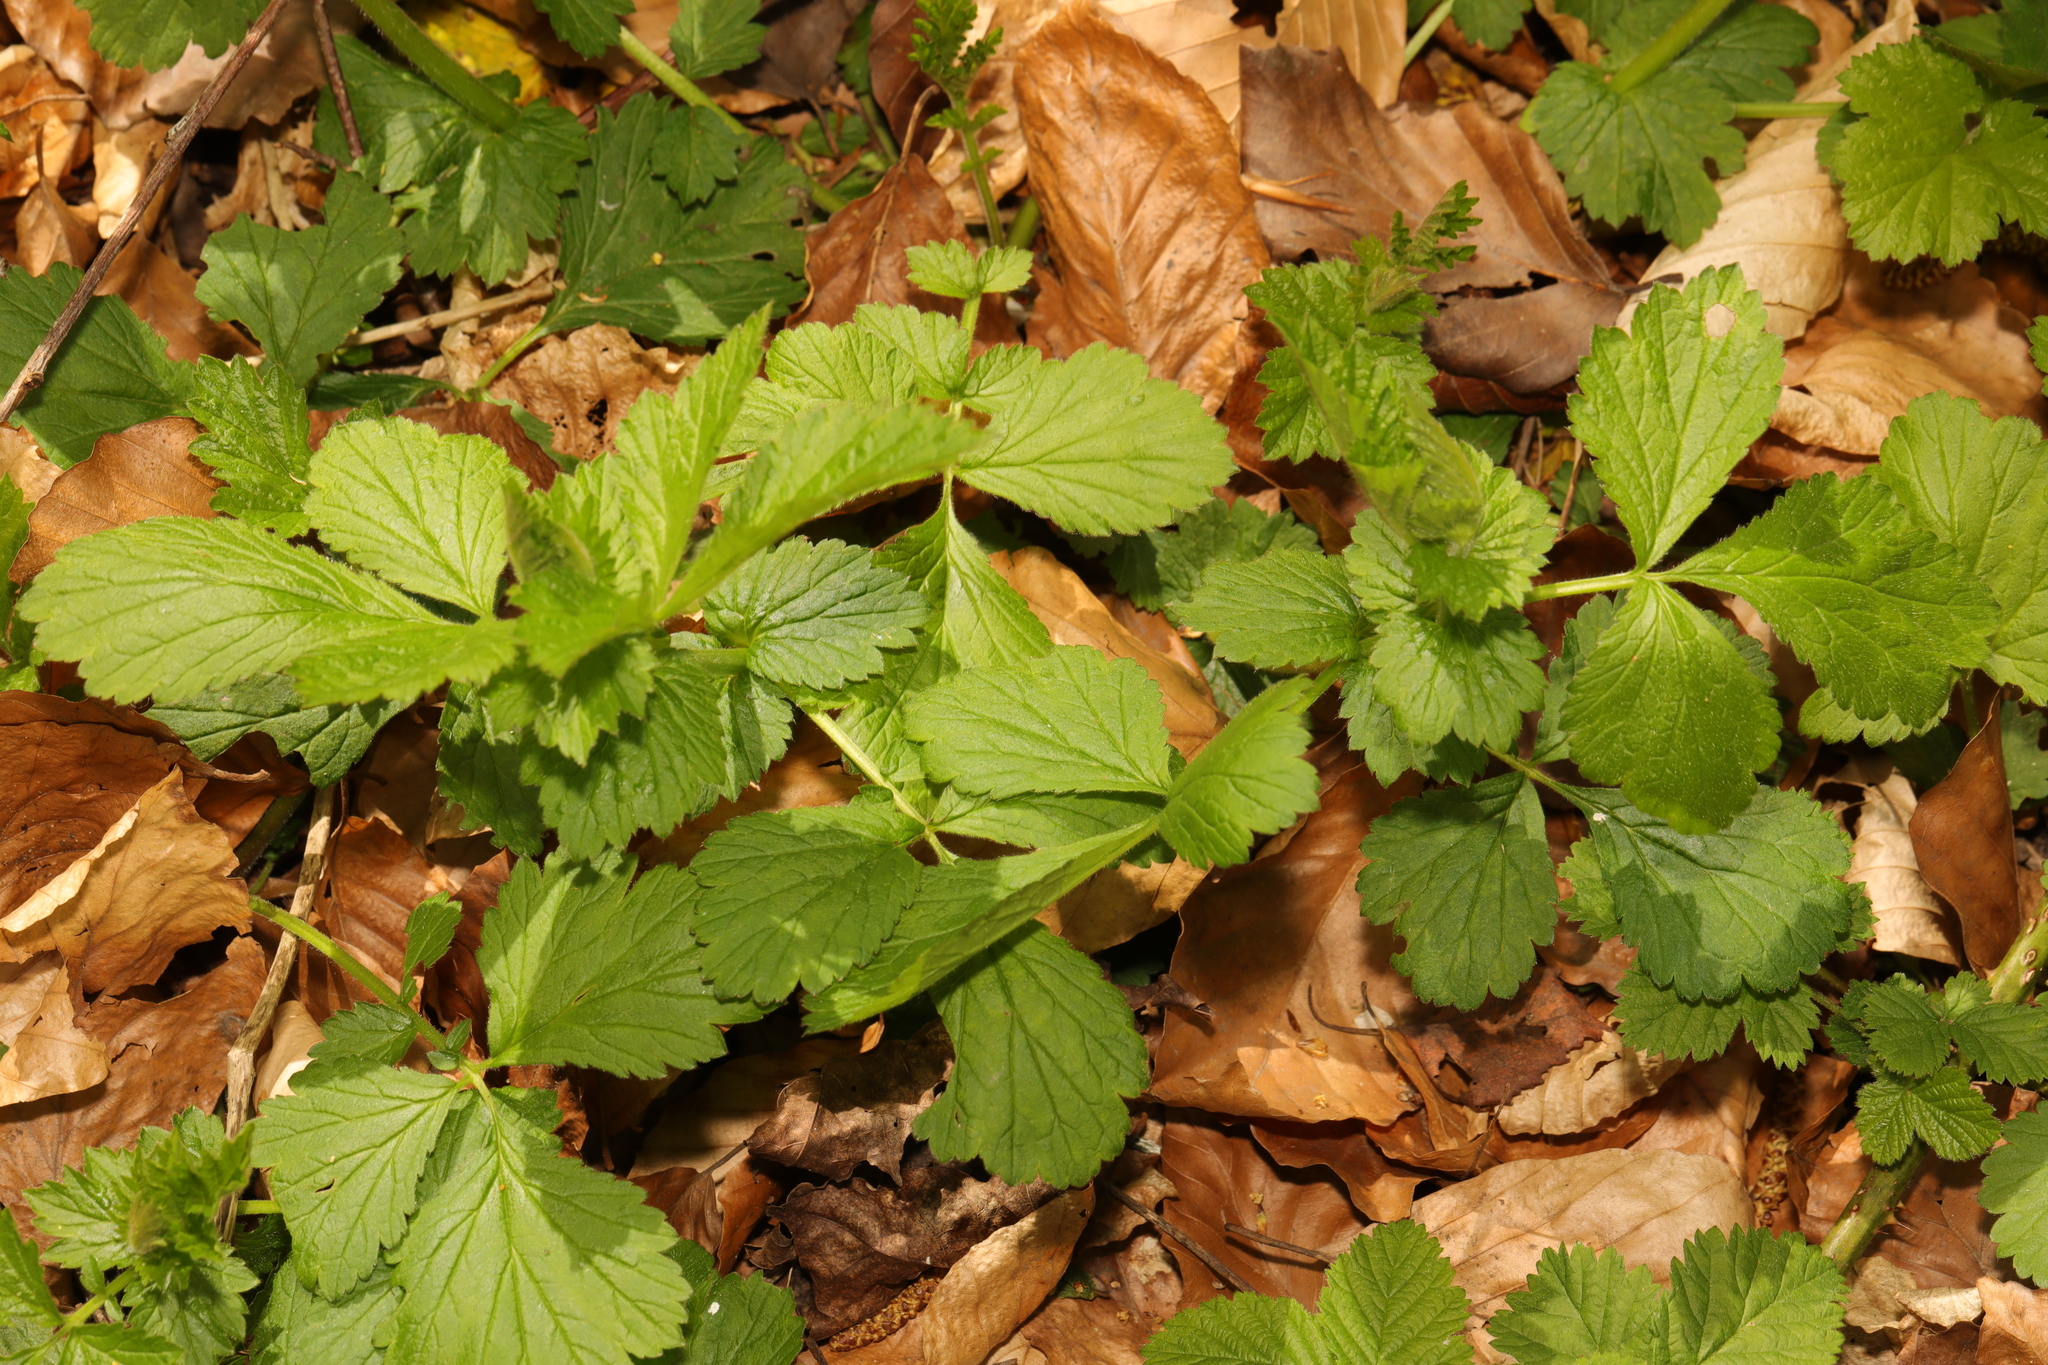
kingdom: Plantae
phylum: Tracheophyta
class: Magnoliopsida
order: Rosales
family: Rosaceae
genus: Geum
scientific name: Geum urbanum
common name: Wood avens
